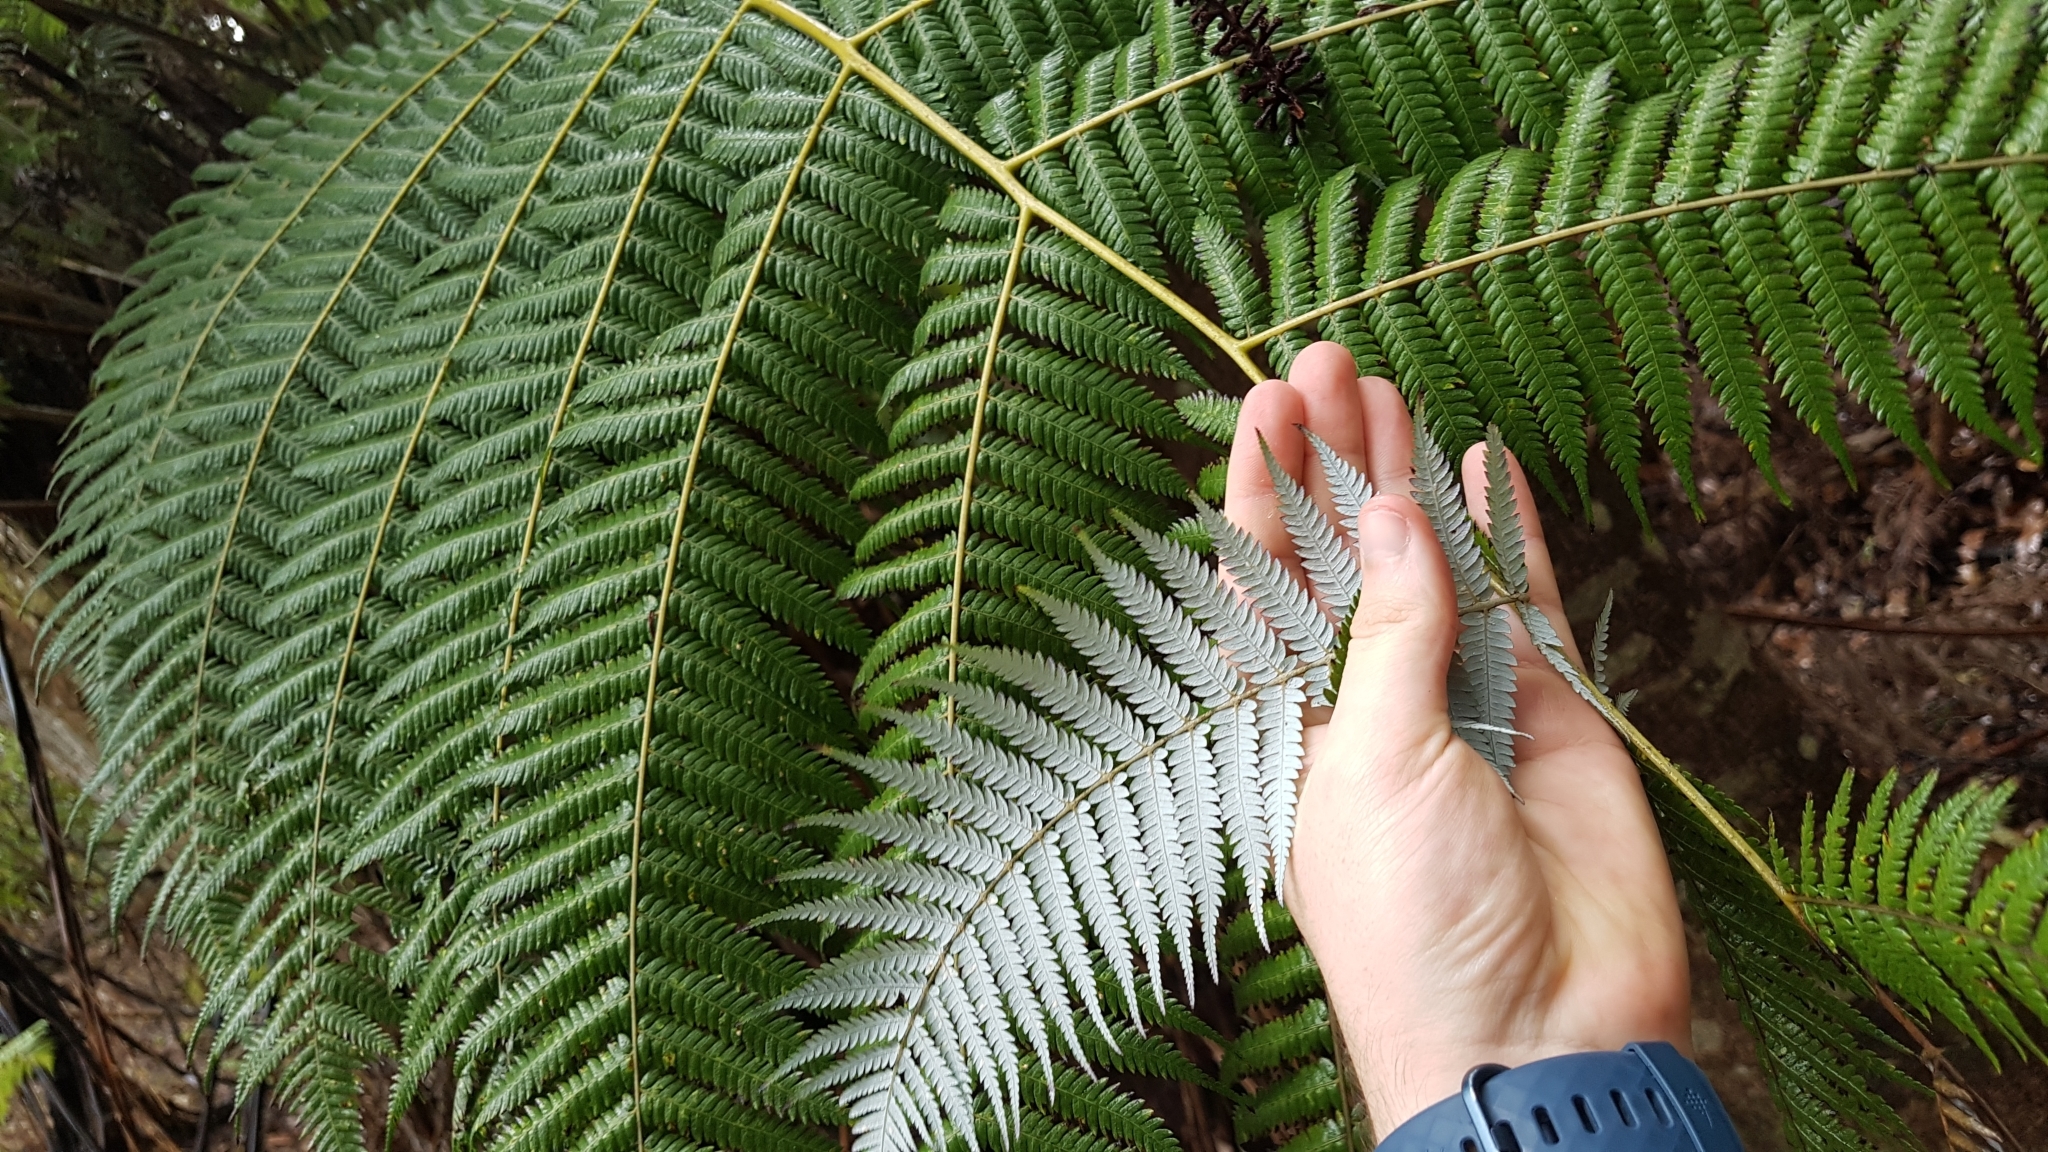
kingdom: Plantae
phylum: Tracheophyta
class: Polypodiopsida
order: Cyatheales
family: Cyatheaceae
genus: Alsophila
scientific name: Alsophila dealbata
